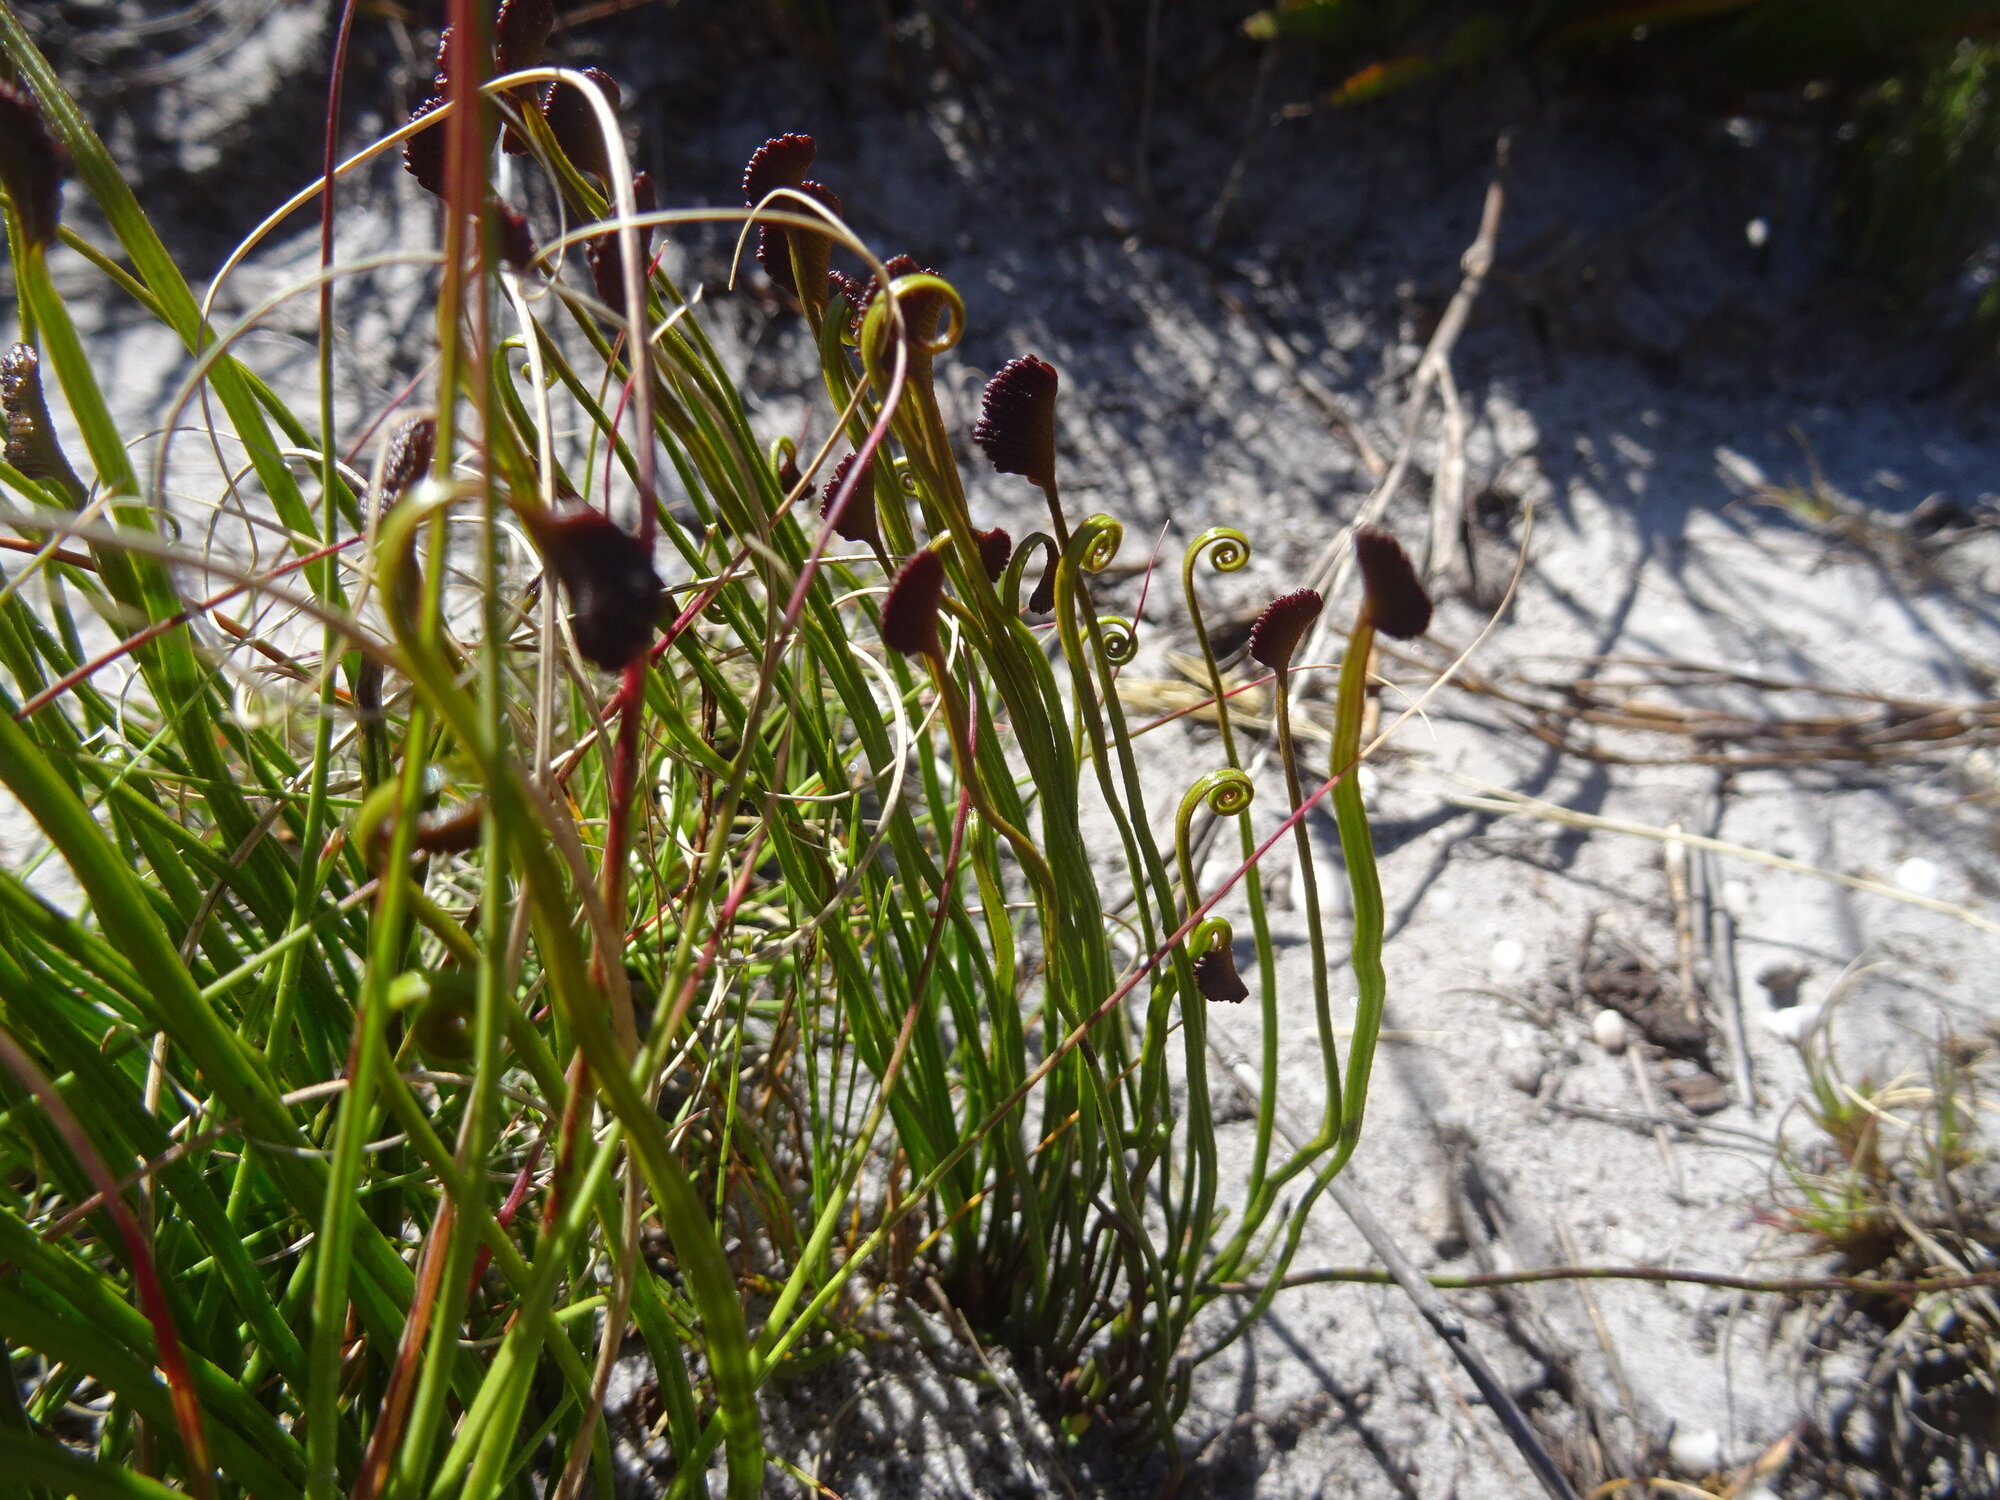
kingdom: Plantae
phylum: Tracheophyta
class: Polypodiopsida
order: Schizaeales
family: Schizaeaceae
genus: Schizaea
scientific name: Schizaea pectinata
